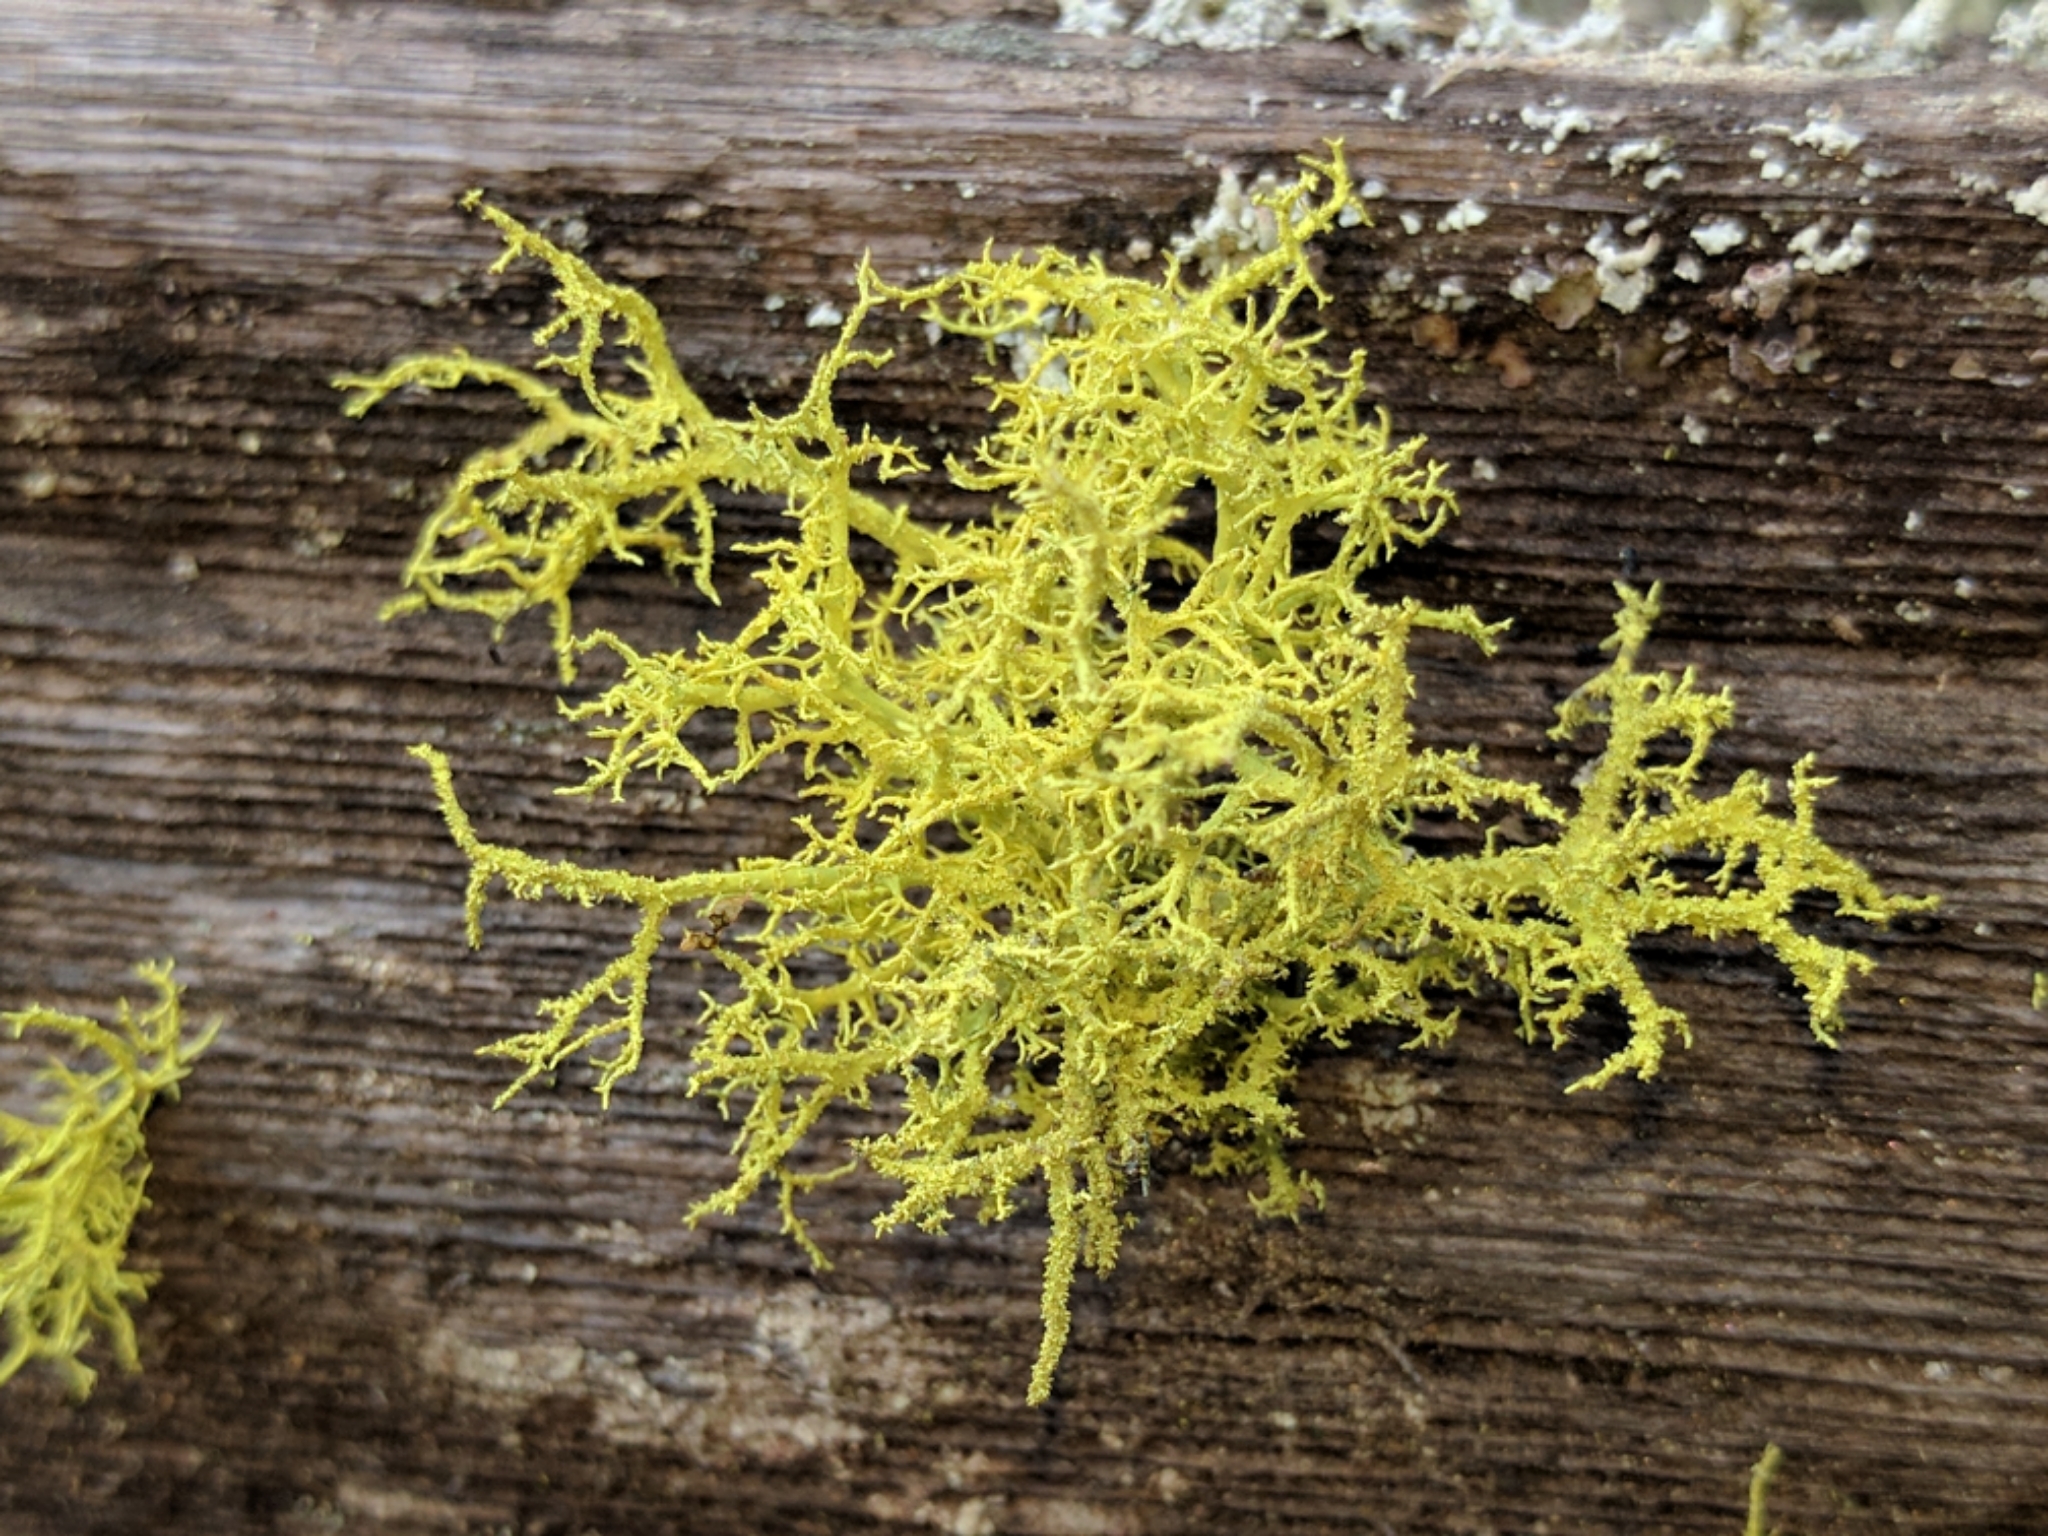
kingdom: Fungi
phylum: Ascomycota
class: Lecanoromycetes
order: Lecanorales
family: Parmeliaceae
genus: Letharia
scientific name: Letharia vulpina
